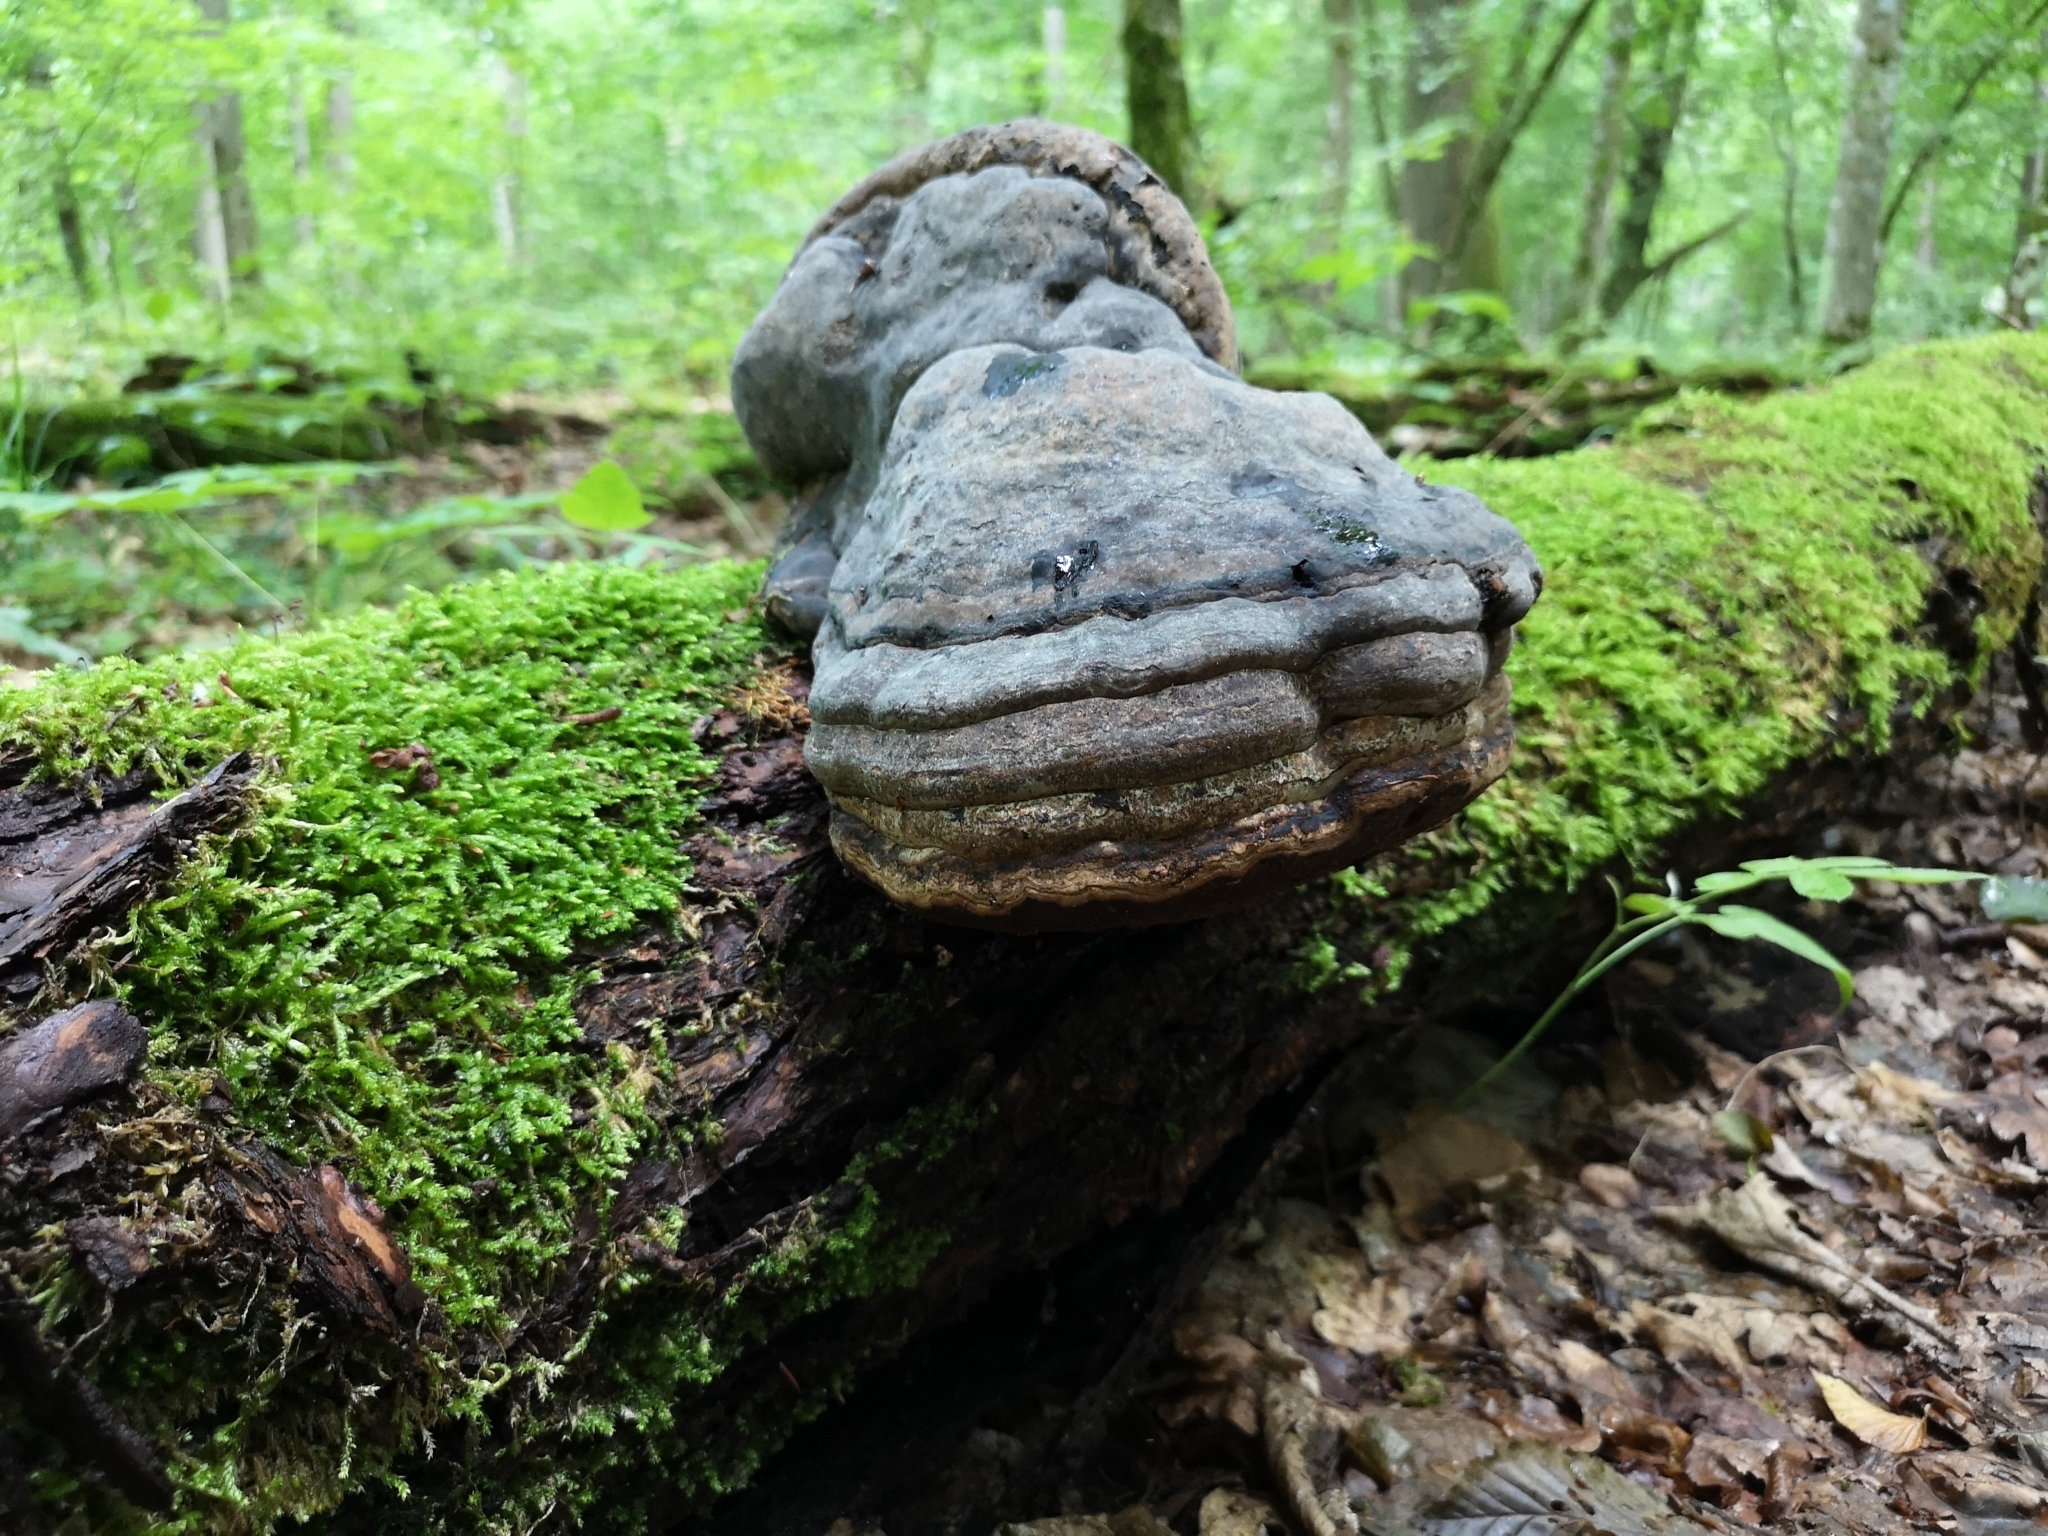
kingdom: Fungi
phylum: Basidiomycota
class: Agaricomycetes
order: Polyporales
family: Polyporaceae
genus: Fomes
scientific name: Fomes fomentarius
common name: Hoof fungus
